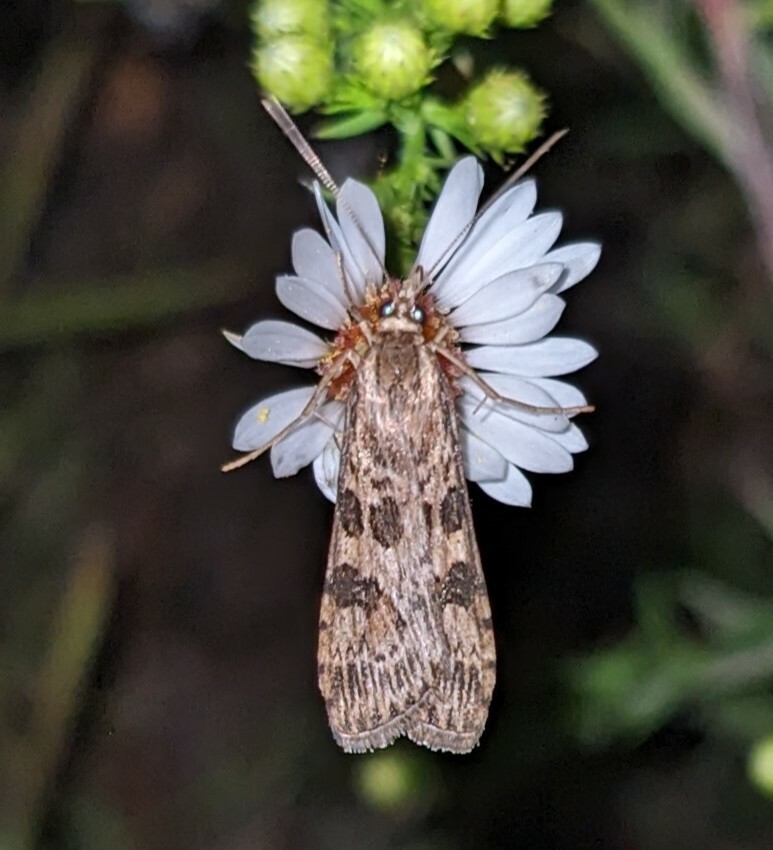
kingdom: Animalia
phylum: Arthropoda
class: Insecta
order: Lepidoptera
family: Crambidae
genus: Nomophila
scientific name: Nomophila nearctica
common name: American rush veneer
